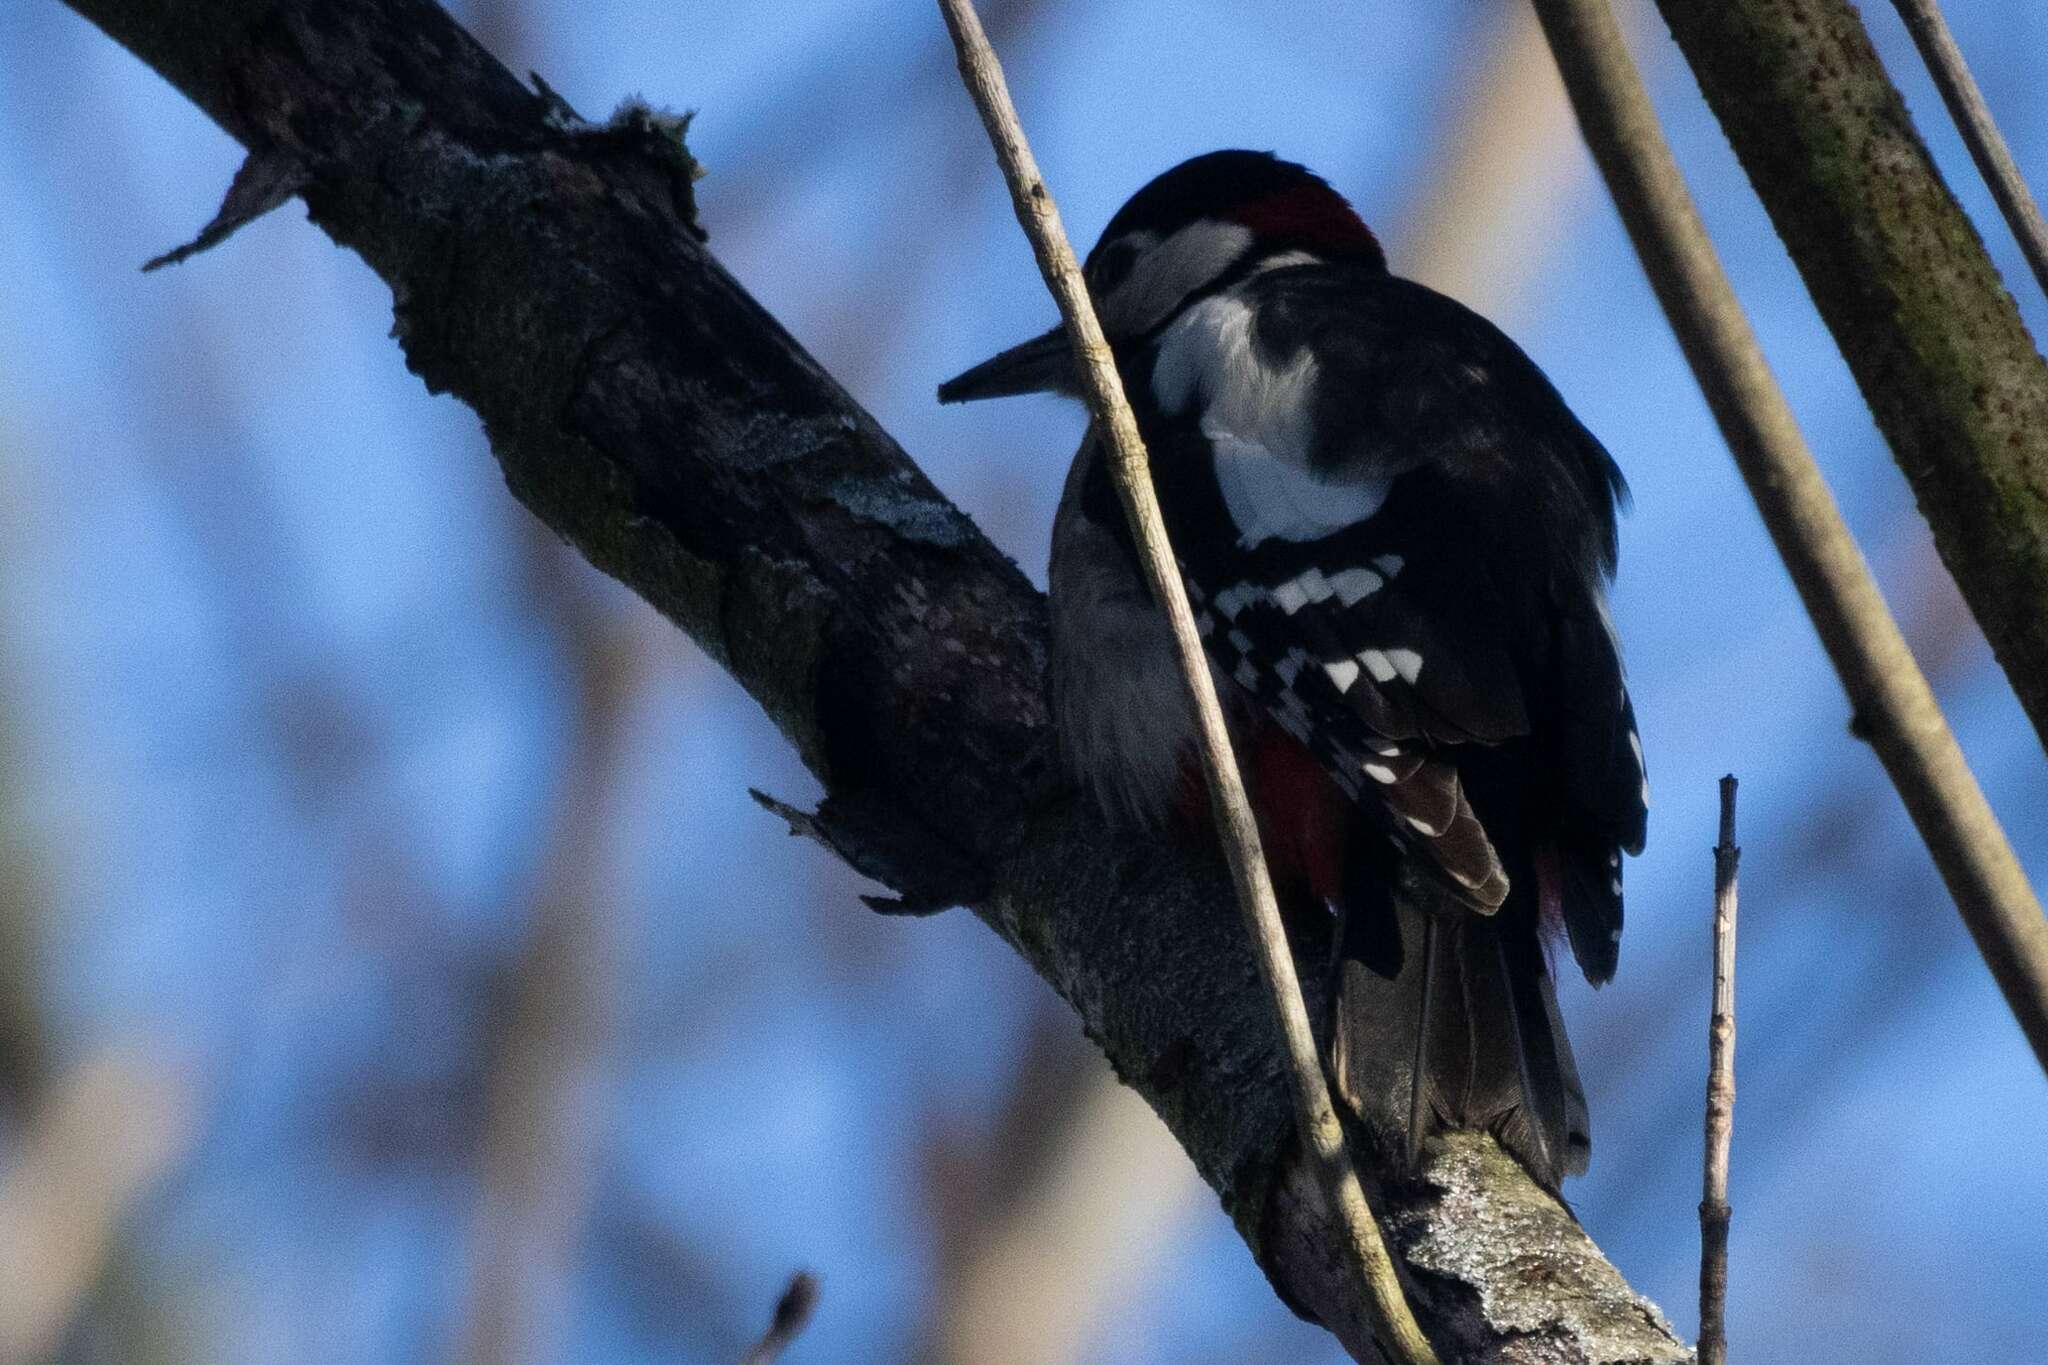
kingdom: Animalia
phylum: Chordata
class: Aves
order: Piciformes
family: Picidae
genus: Dendrocopos
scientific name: Dendrocopos major
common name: Great spotted woodpecker
